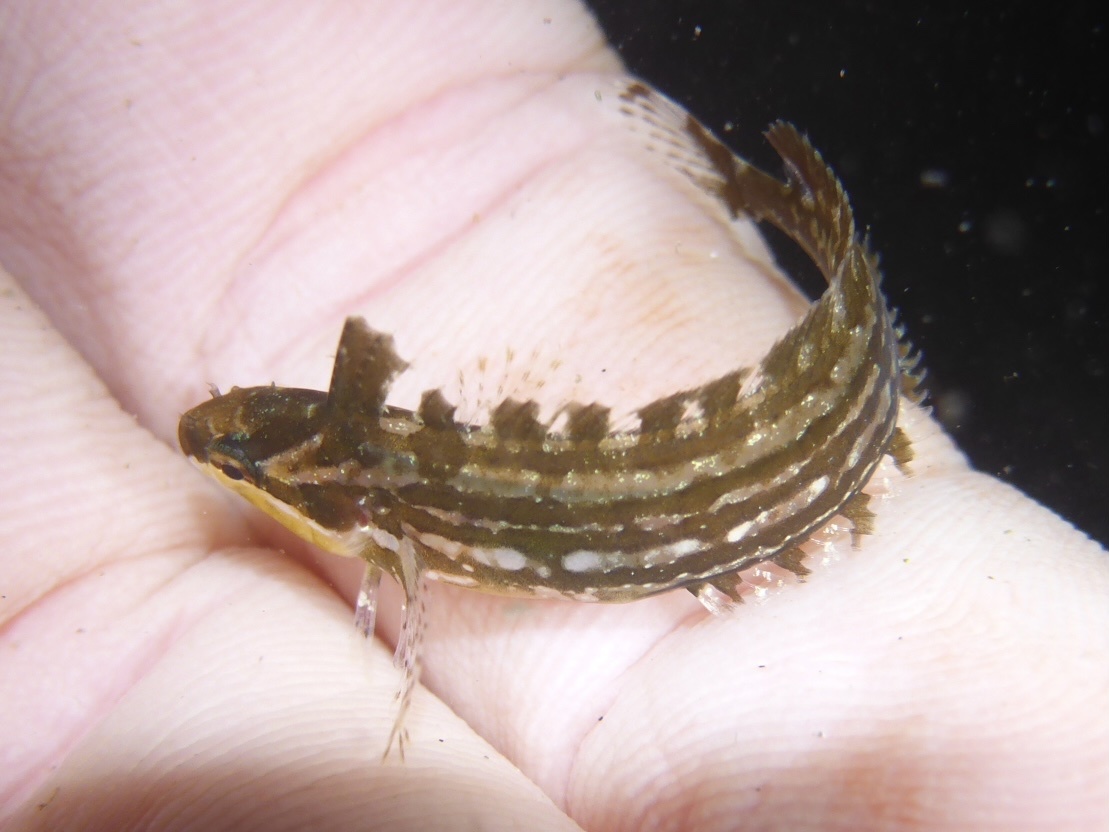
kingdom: Animalia
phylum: Chordata
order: Perciformes
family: Clinidae
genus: Gibbonsia
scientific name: Gibbonsia metzi
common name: Striped kelpfish
